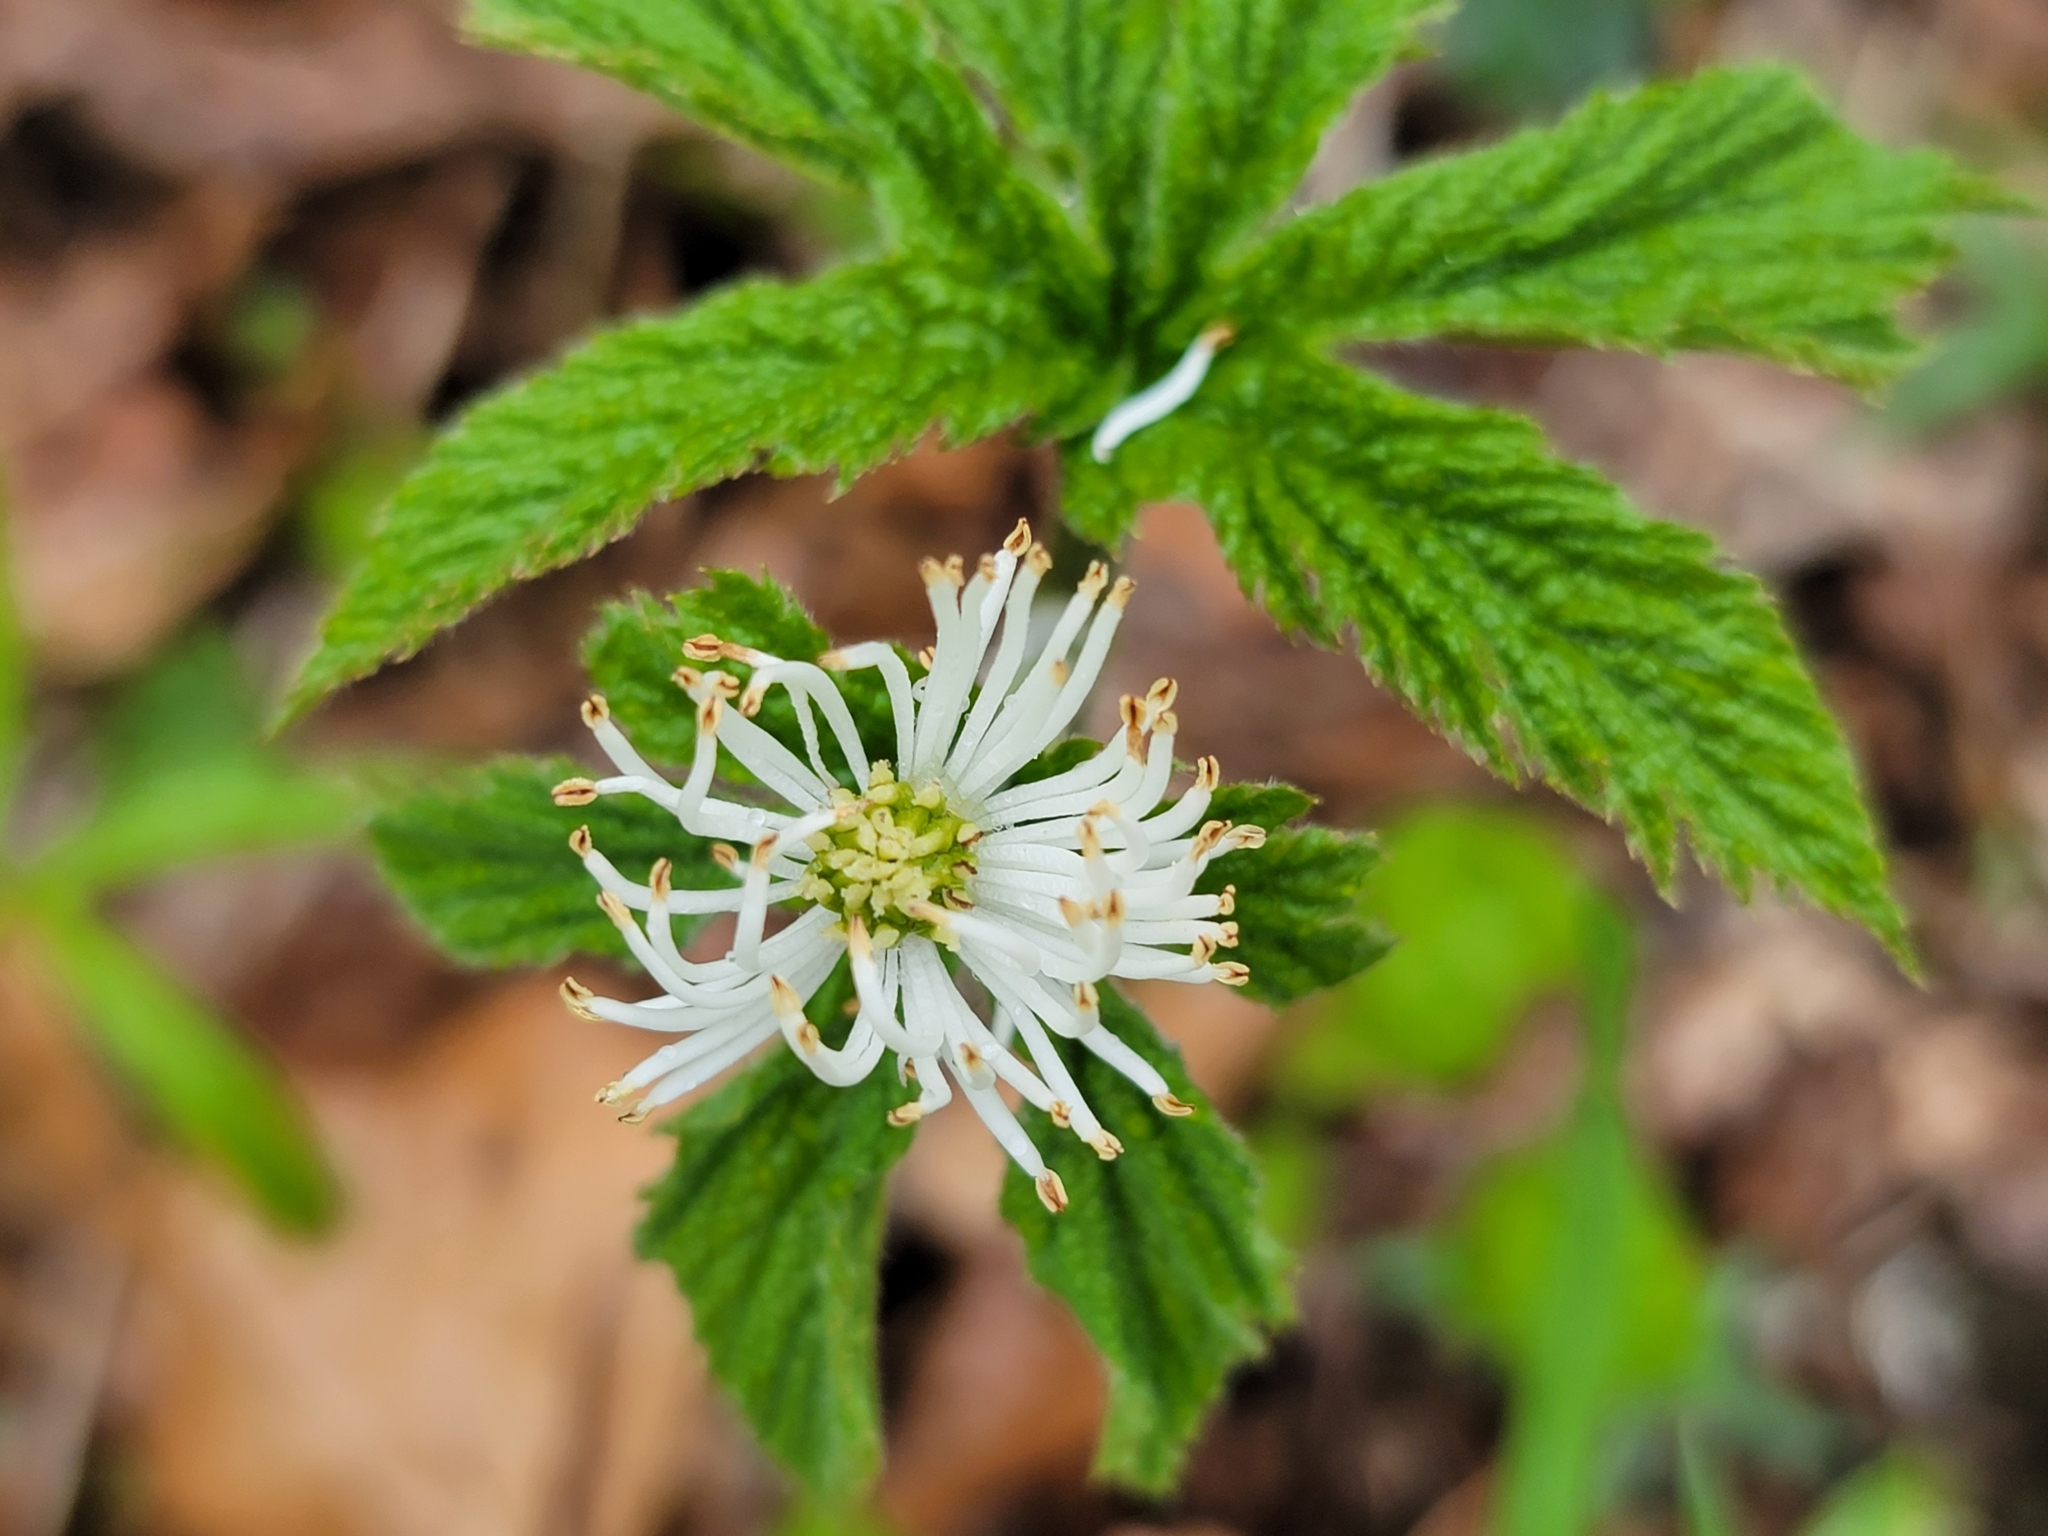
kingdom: Plantae
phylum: Tracheophyta
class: Magnoliopsida
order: Ranunculales
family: Ranunculaceae
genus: Hydrastis
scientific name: Hydrastis canadensis
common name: Goldenseal
